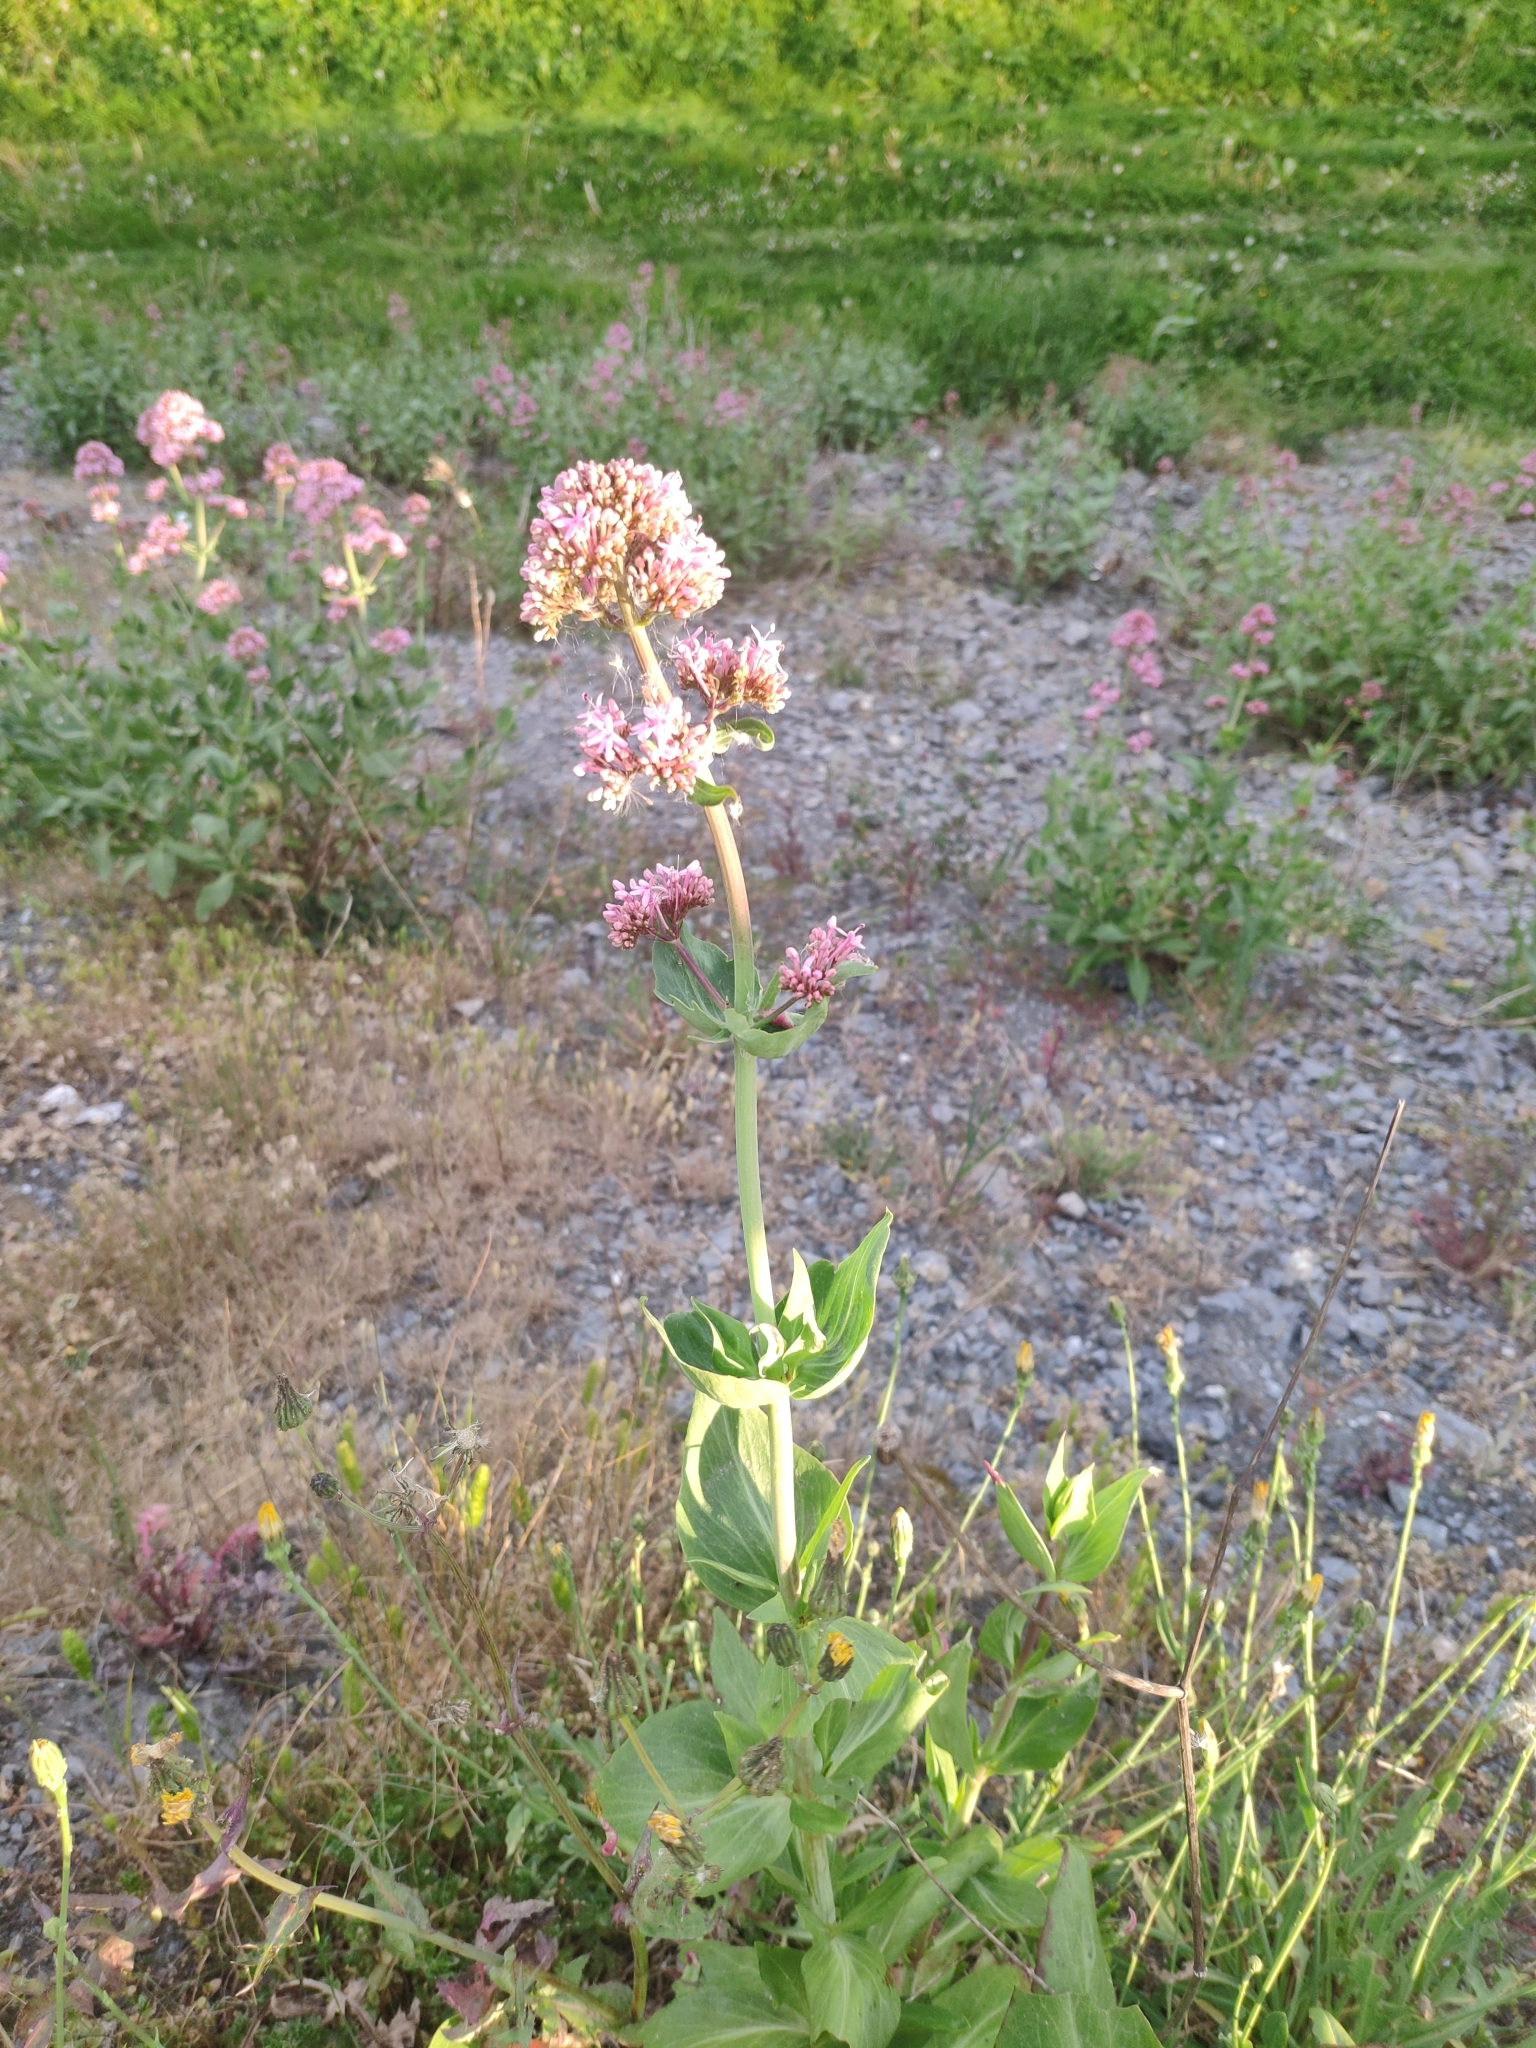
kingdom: Plantae
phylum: Tracheophyta
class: Magnoliopsida
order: Dipsacales
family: Caprifoliaceae
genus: Centranthus
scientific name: Centranthus ruber
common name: Red valerian
